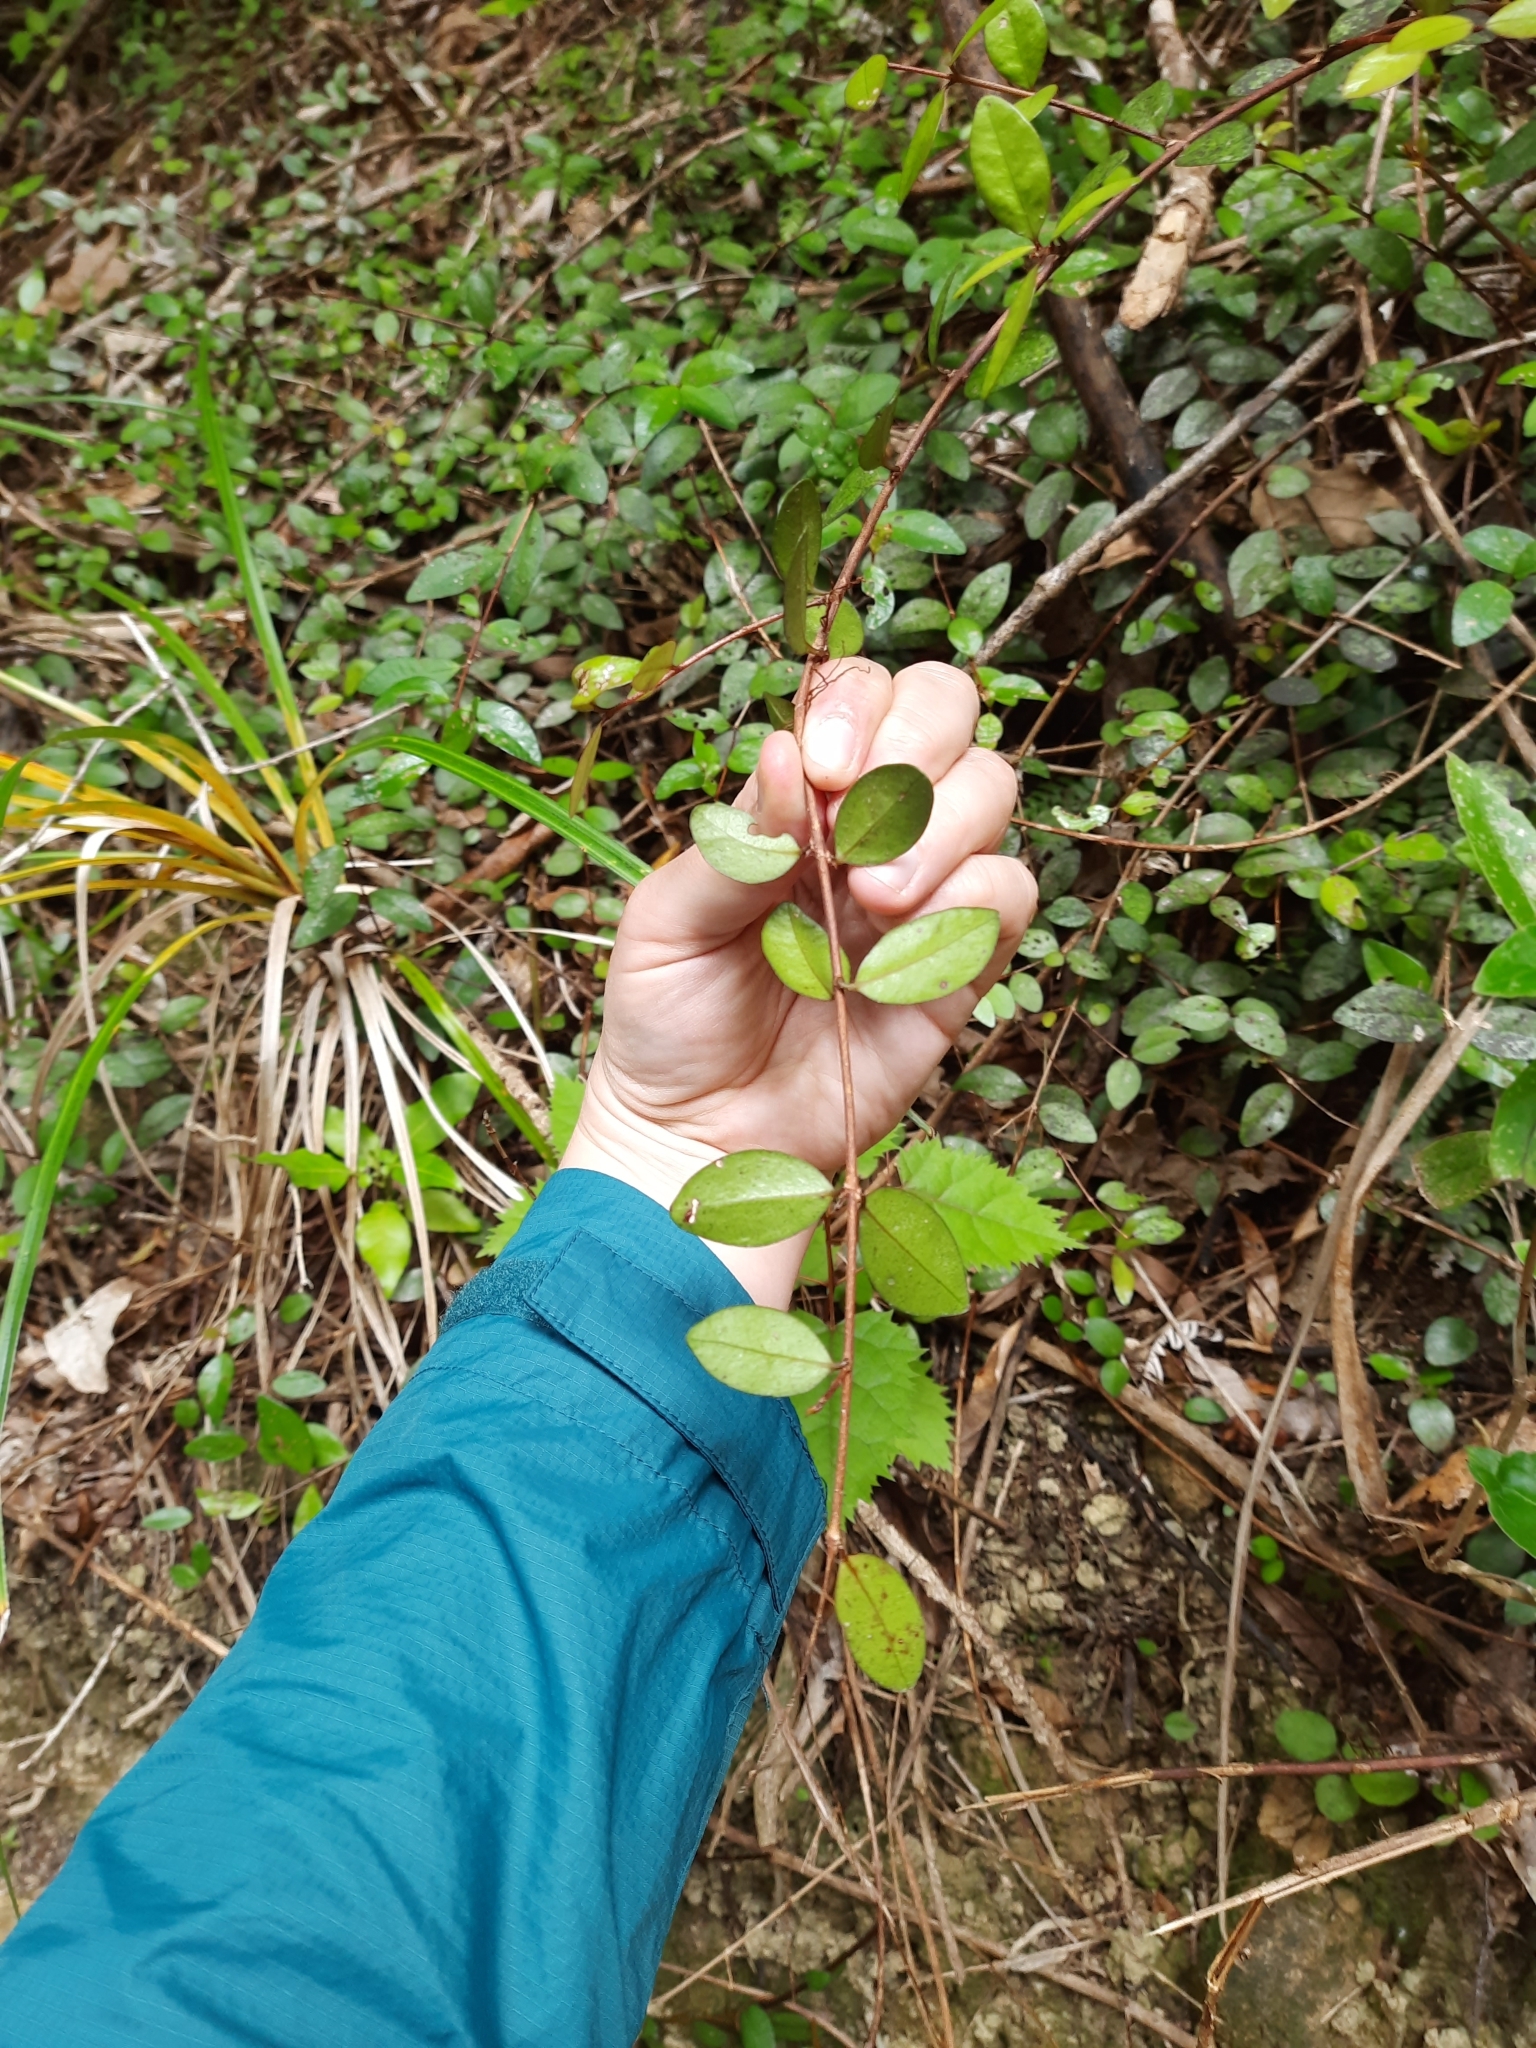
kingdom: Plantae
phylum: Tracheophyta
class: Magnoliopsida
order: Myrtales
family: Myrtaceae
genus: Metrosideros
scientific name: Metrosideros fulgens
